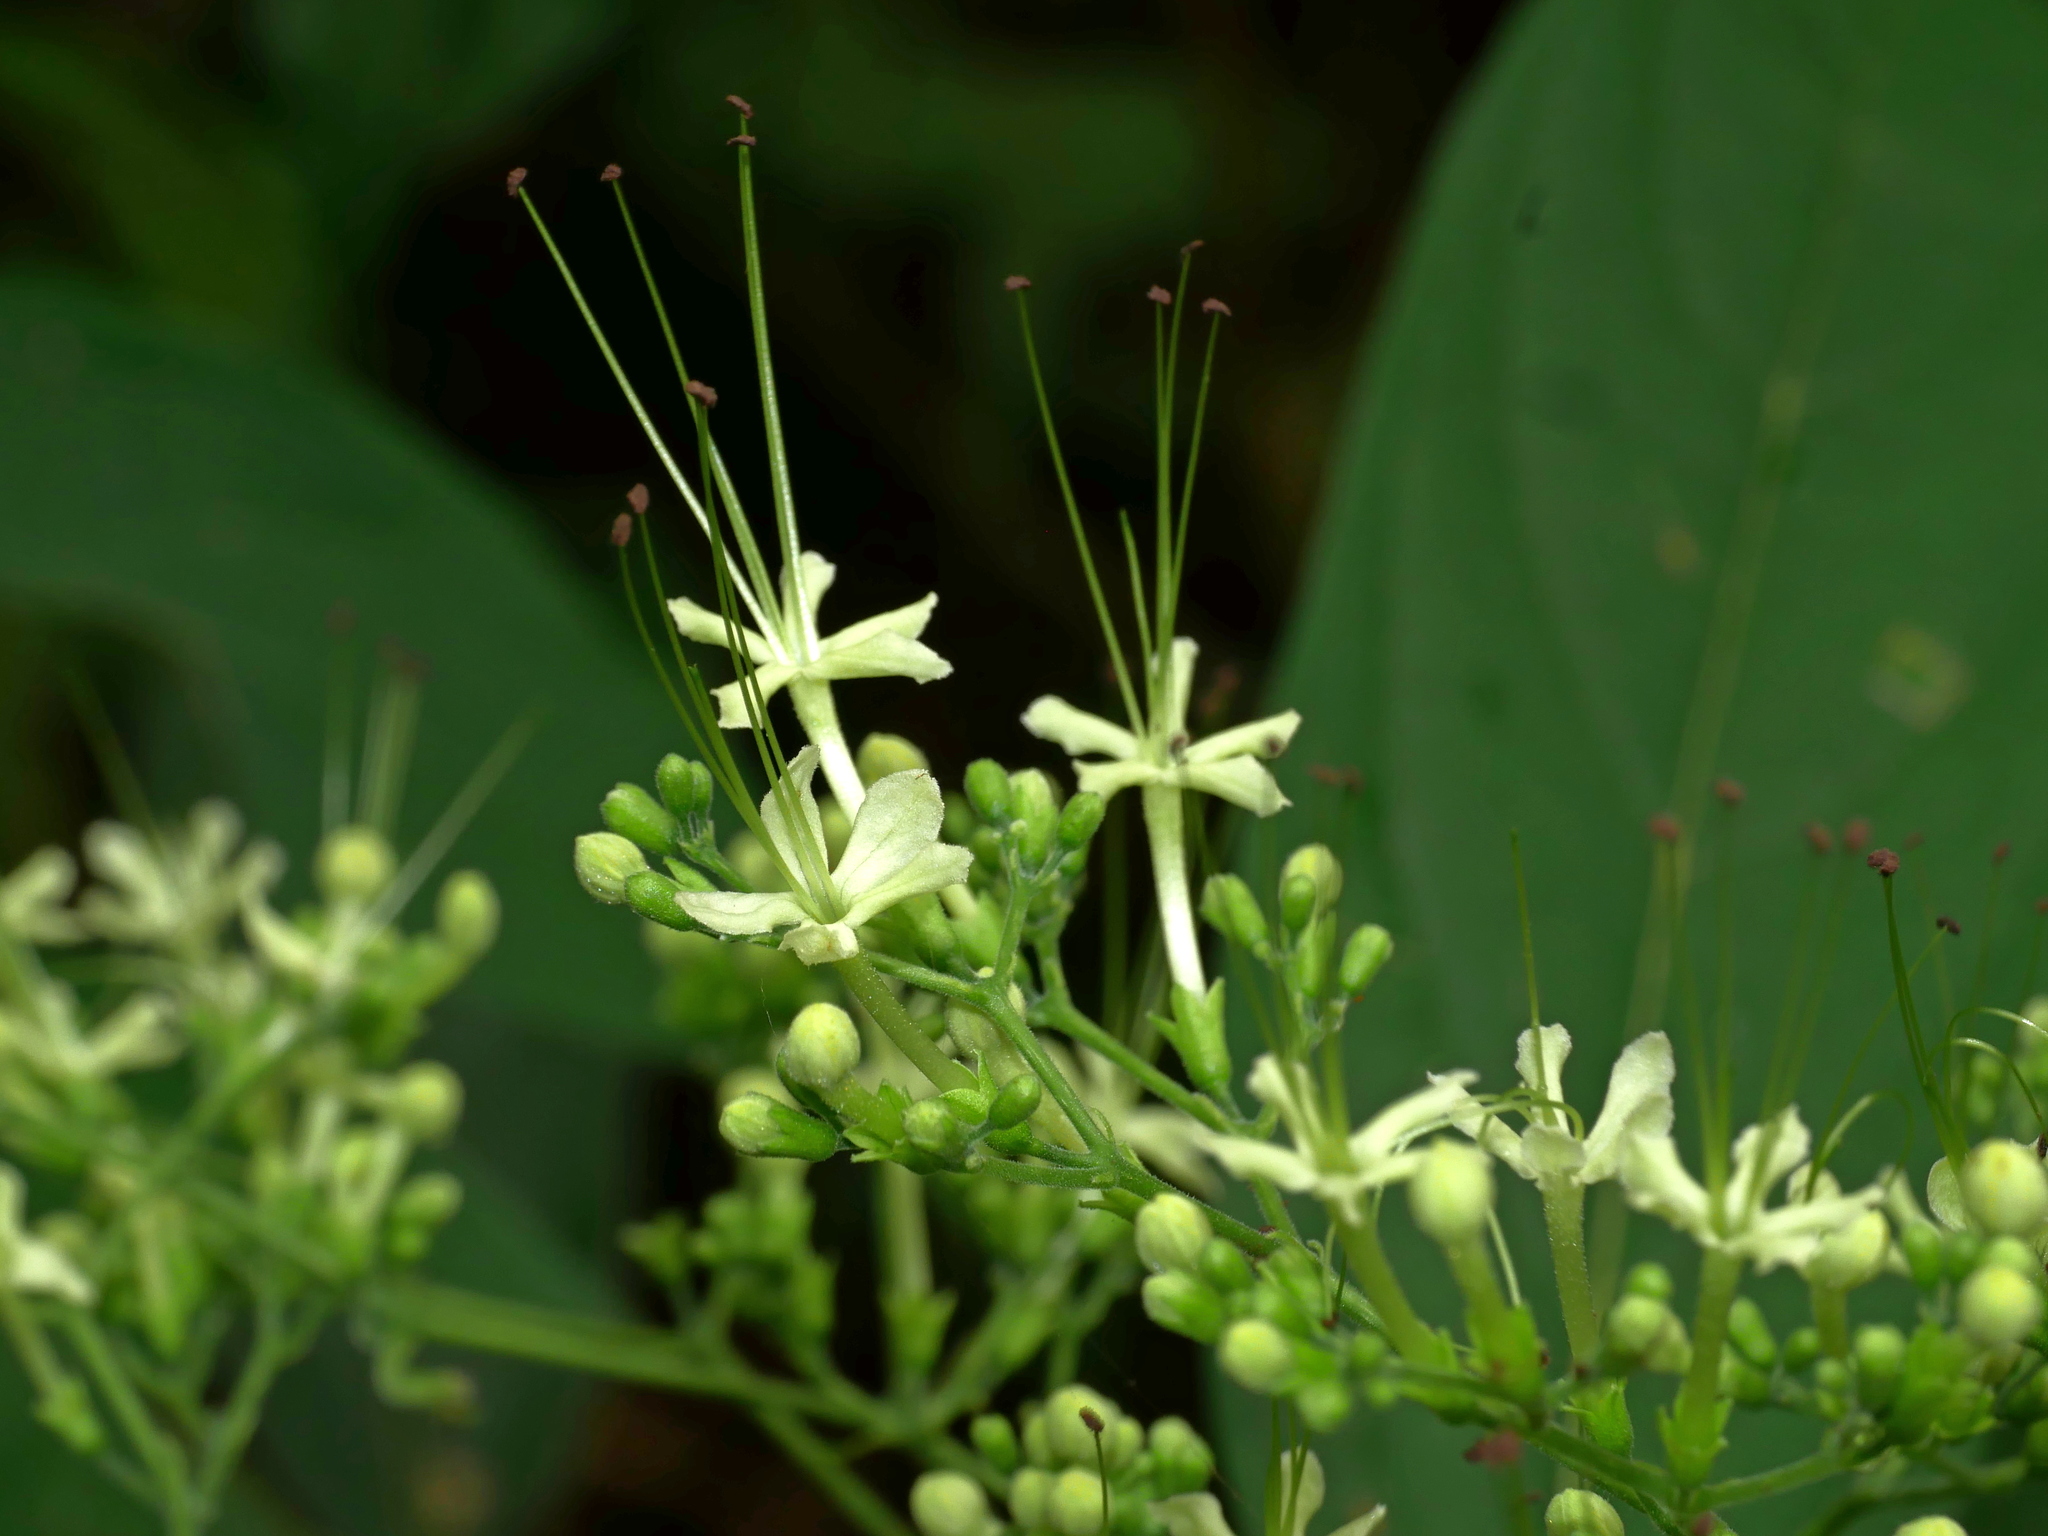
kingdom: Plantae
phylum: Tracheophyta
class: Magnoliopsida
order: Lamiales
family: Lamiaceae
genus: Clerodendrum
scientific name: Clerodendrum cyrtophyllum
